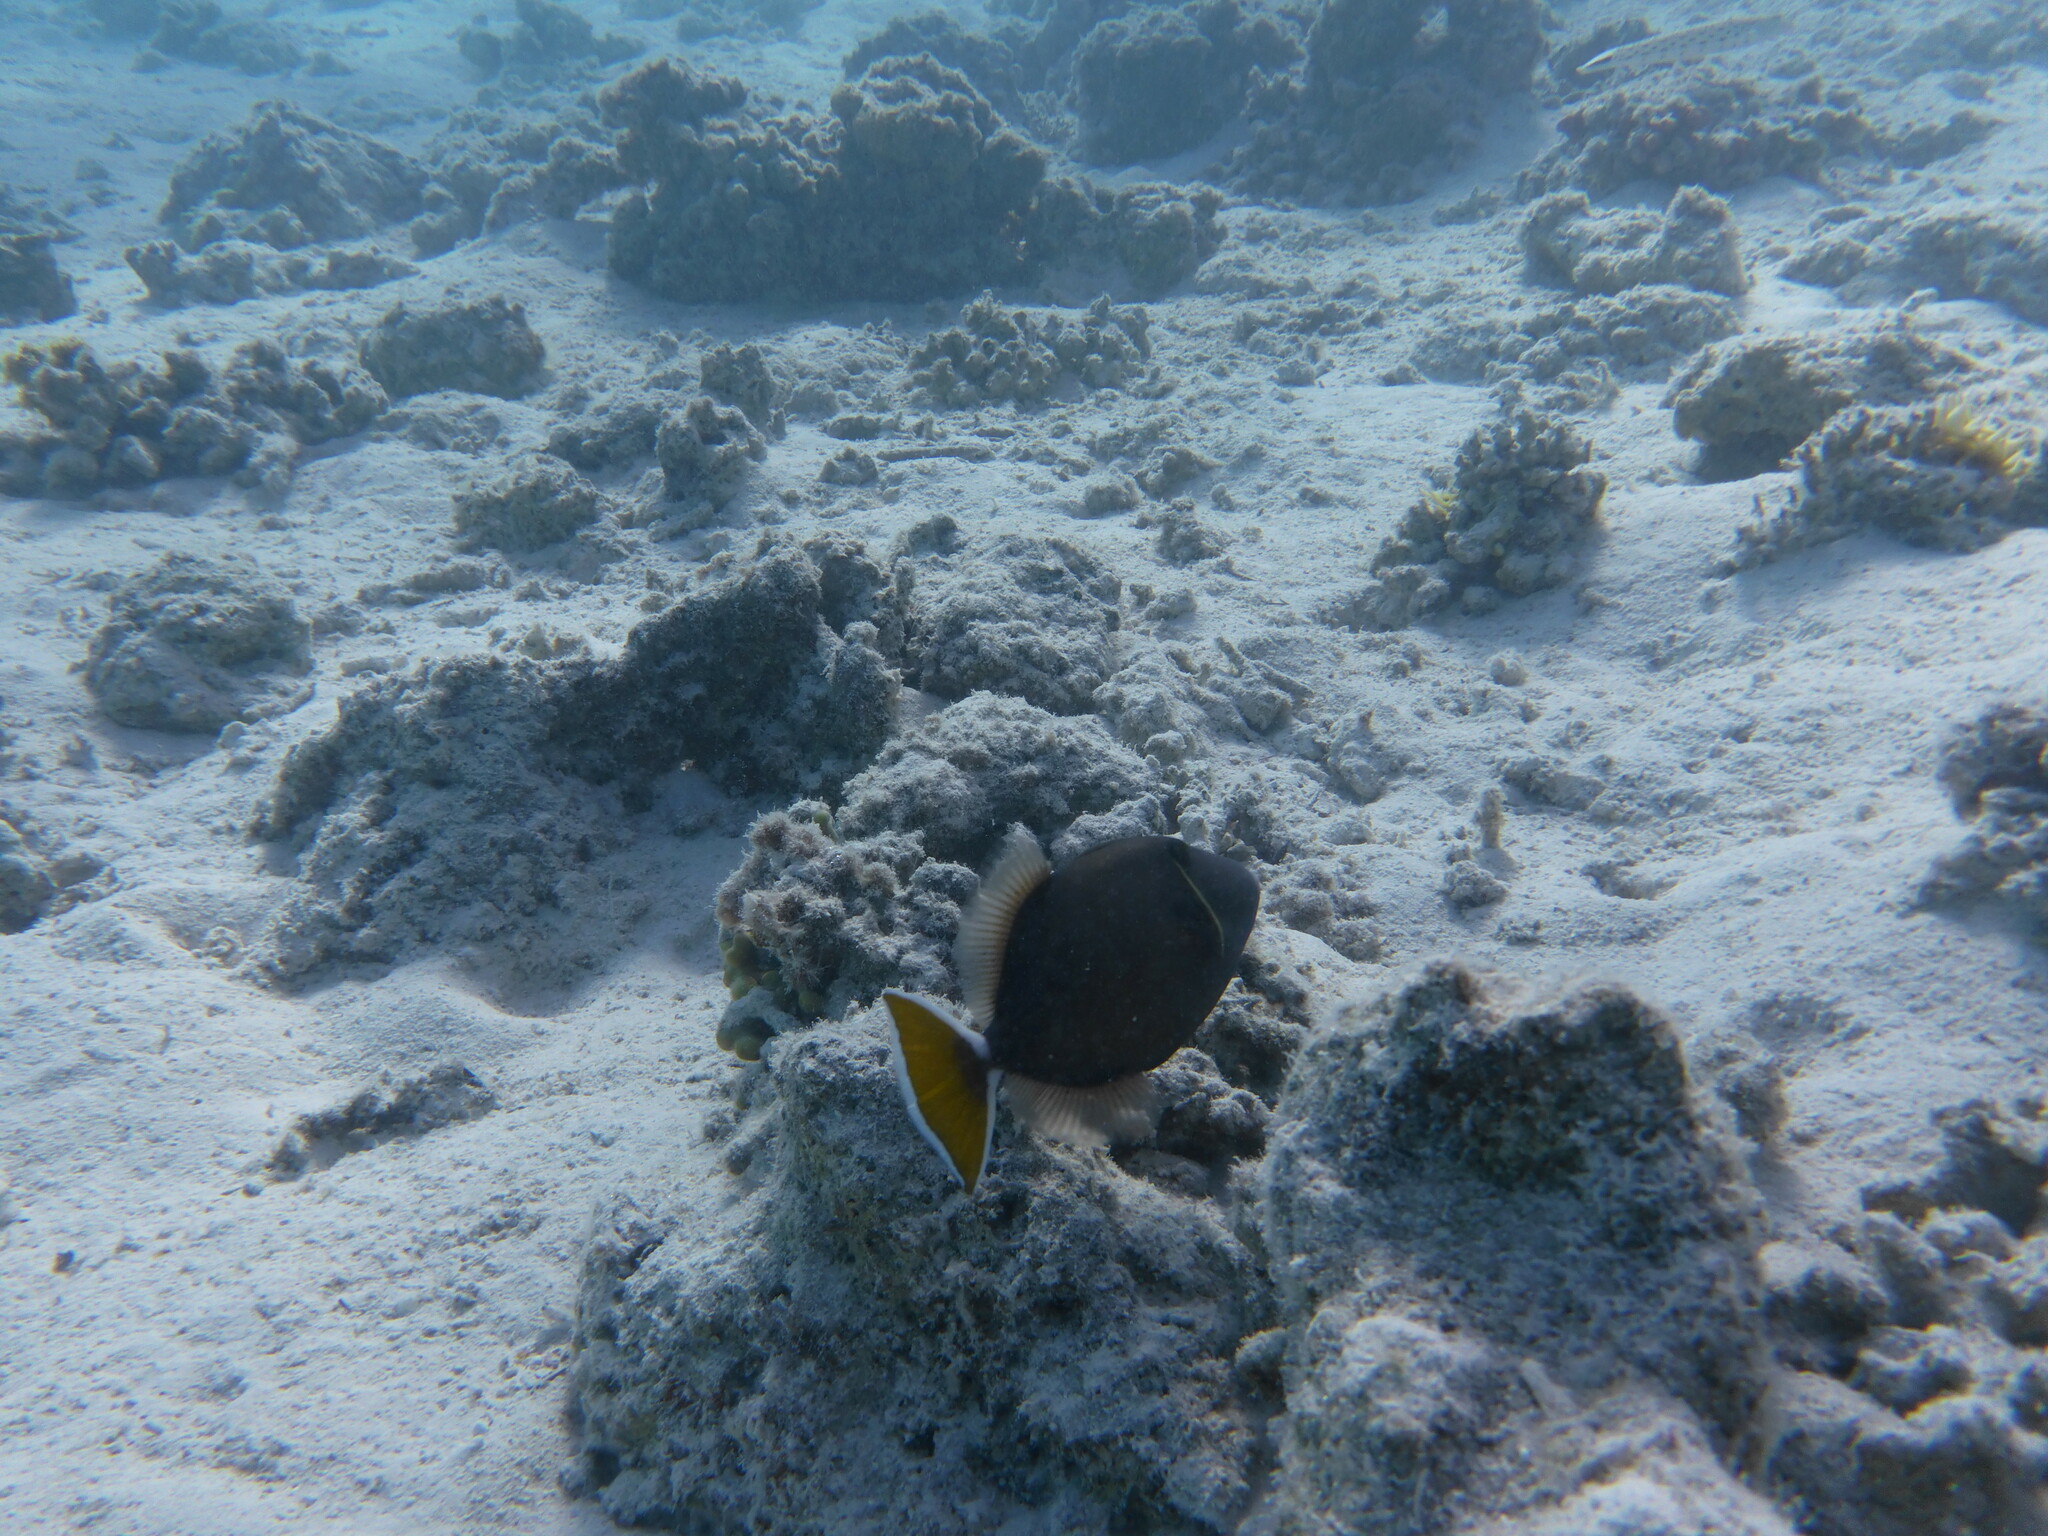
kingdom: Animalia
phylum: Chordata
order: Tetraodontiformes
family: Balistidae
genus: Sufflamen
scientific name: Sufflamen albicaudatum
